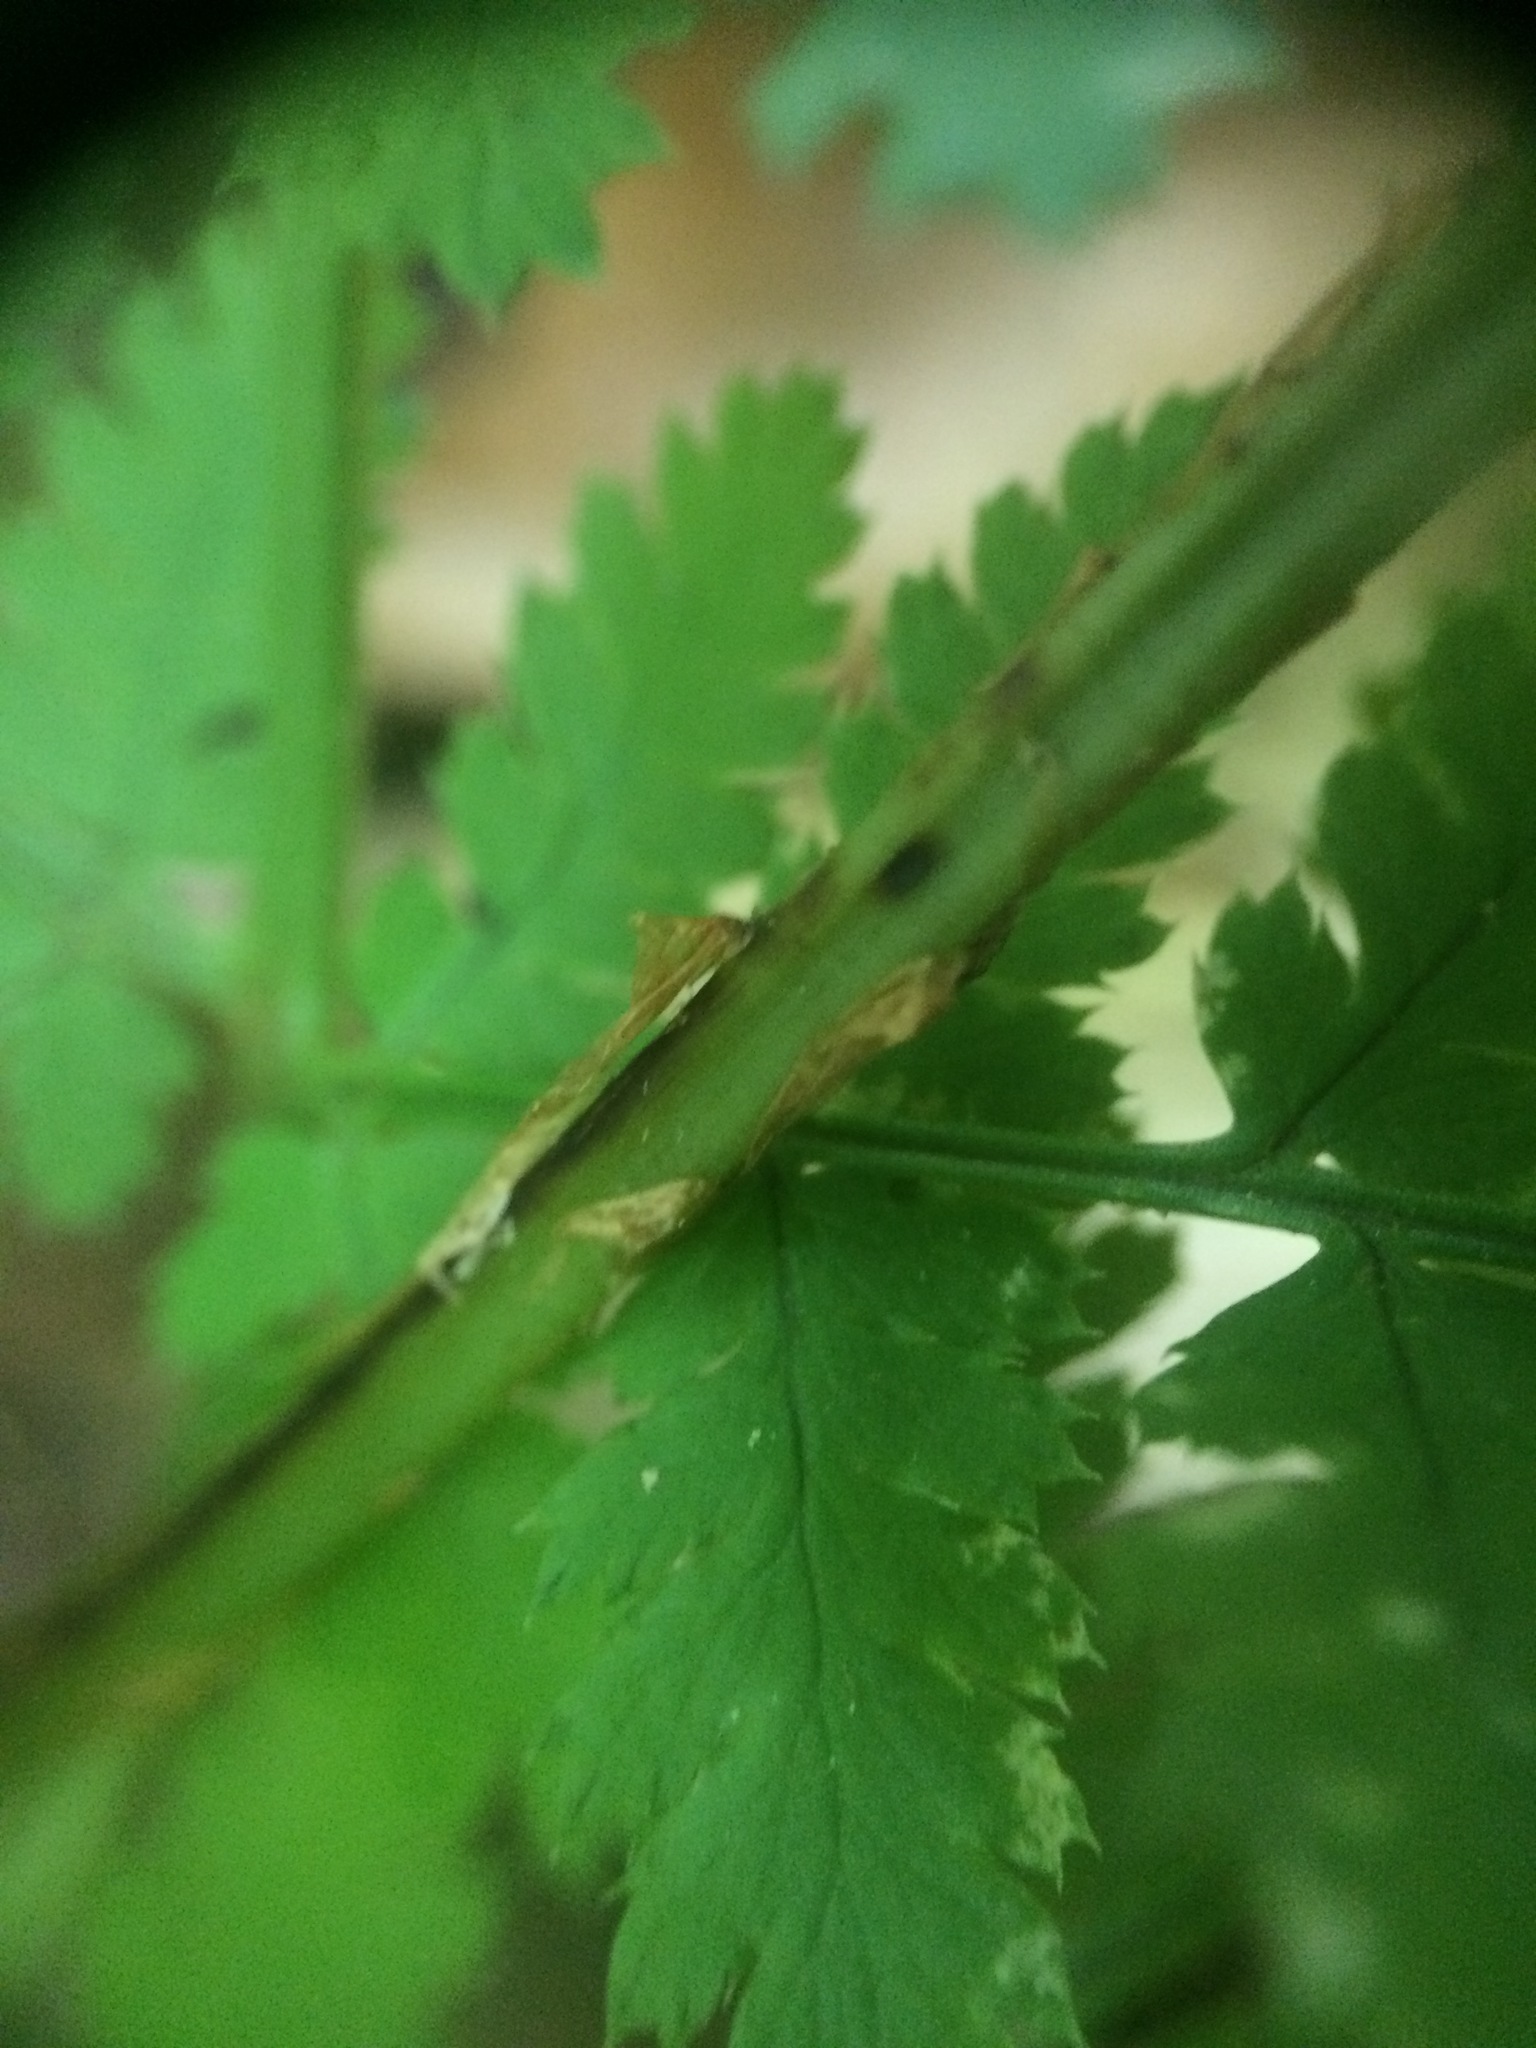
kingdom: Plantae
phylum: Tracheophyta
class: Polypodiopsida
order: Polypodiales
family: Dryopteridaceae
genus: Dryopteris
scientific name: Dryopteris campyloptera
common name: Mountain wood fern
